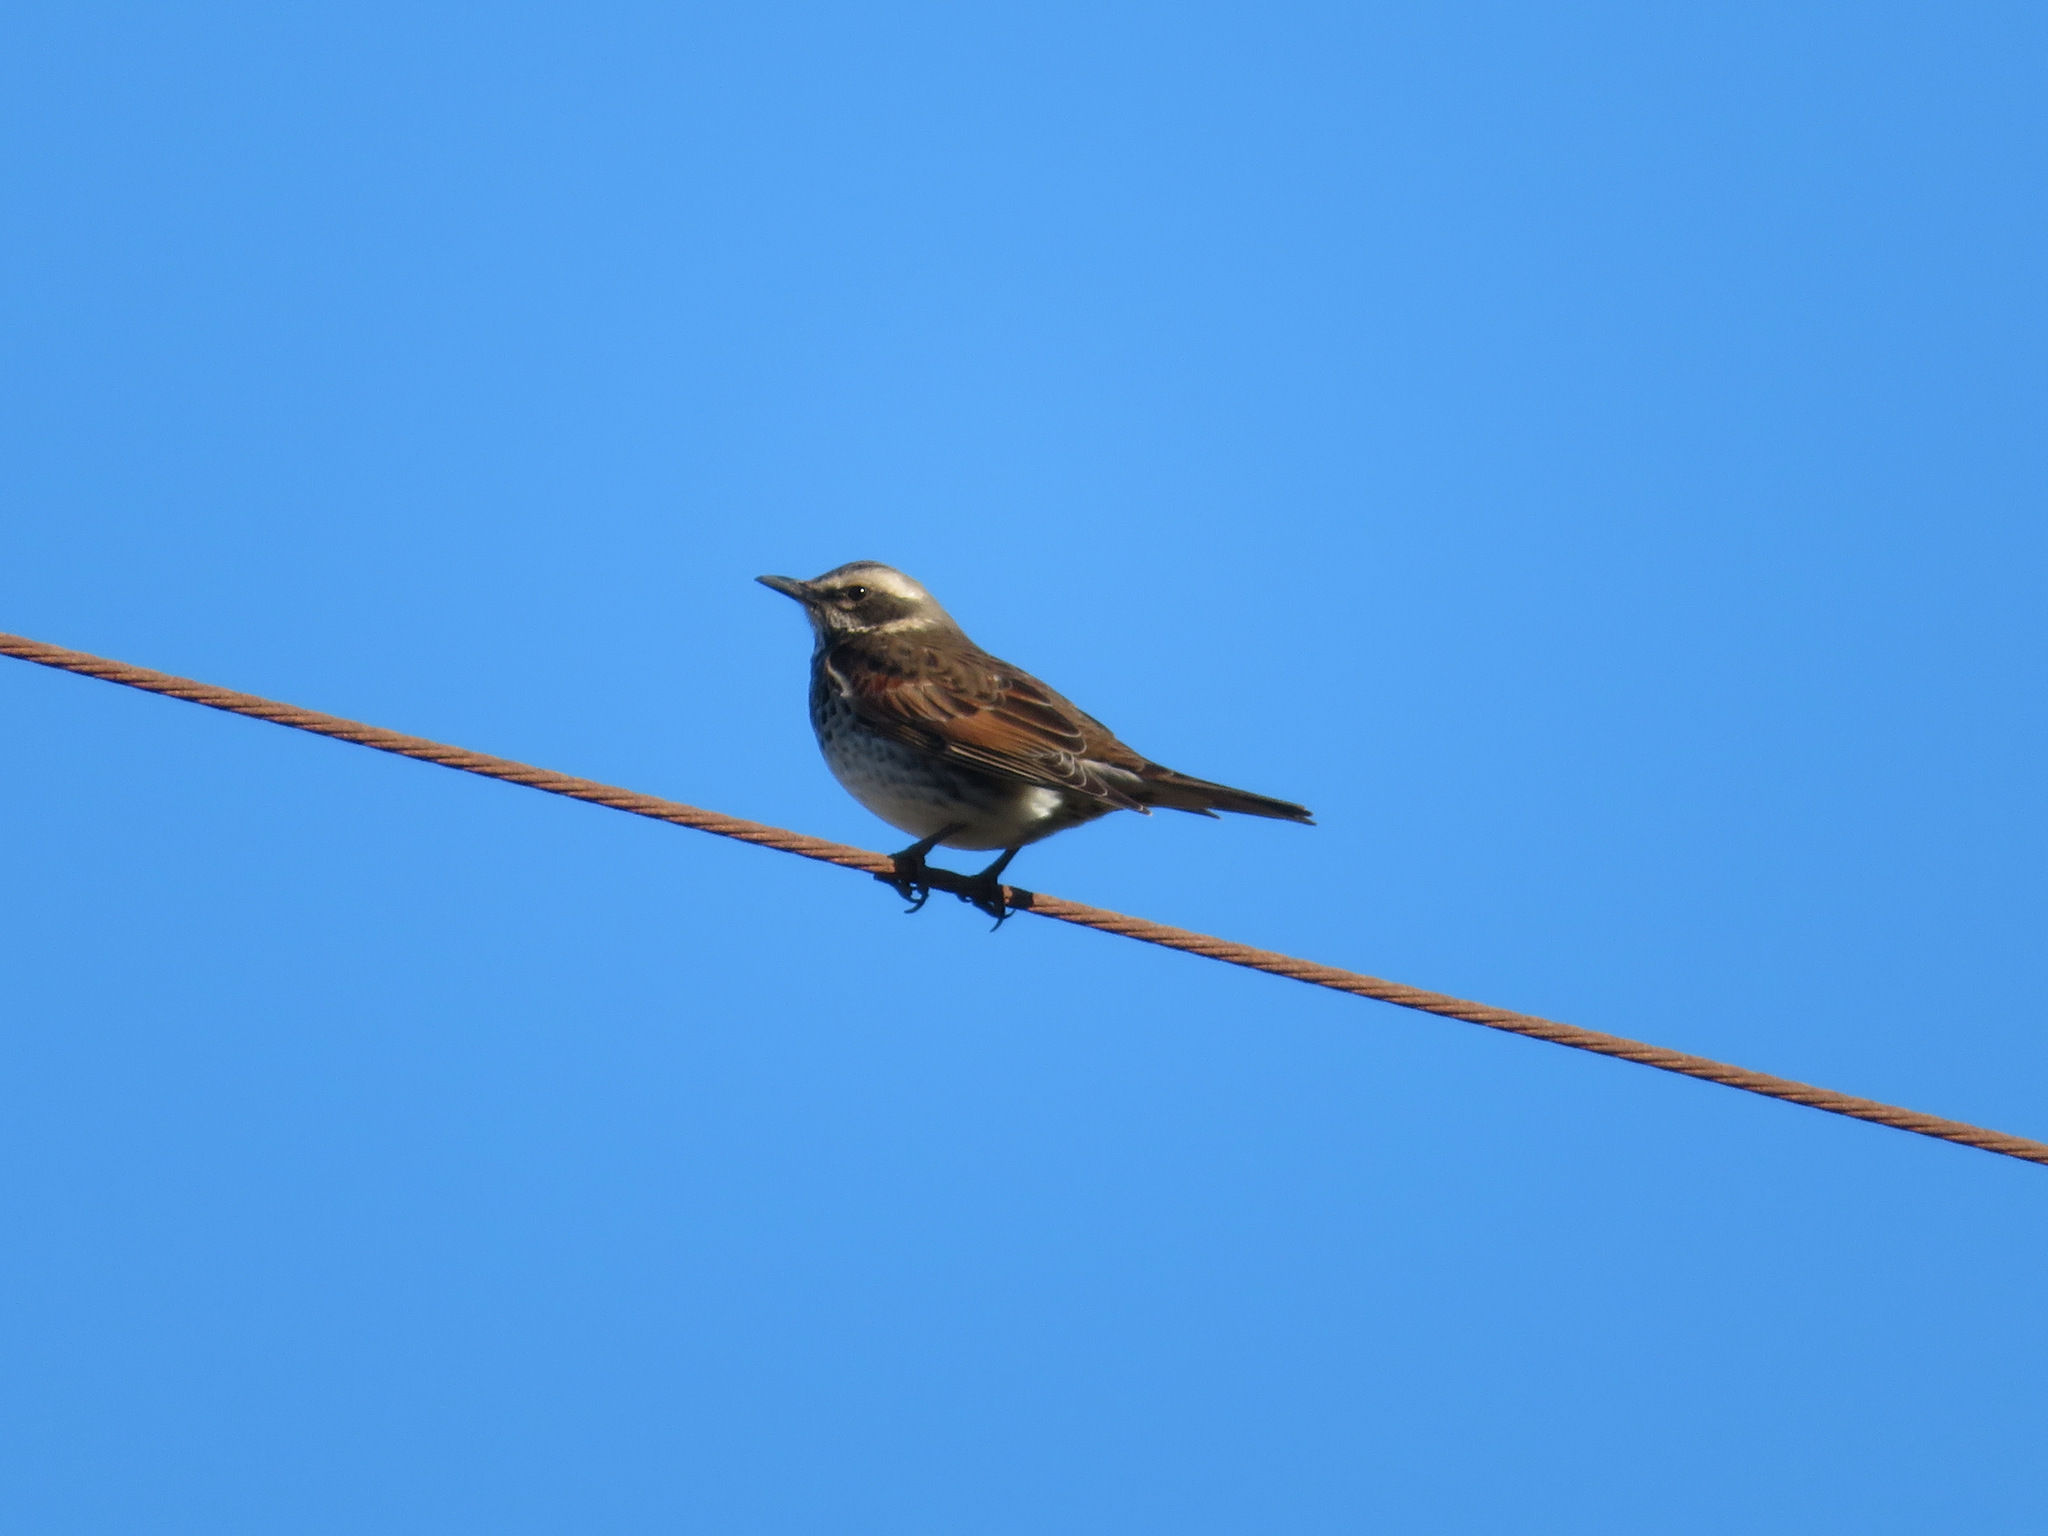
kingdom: Animalia
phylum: Chordata
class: Aves
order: Passeriformes
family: Turdidae
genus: Turdus
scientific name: Turdus eunomus
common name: Dusky thrush
